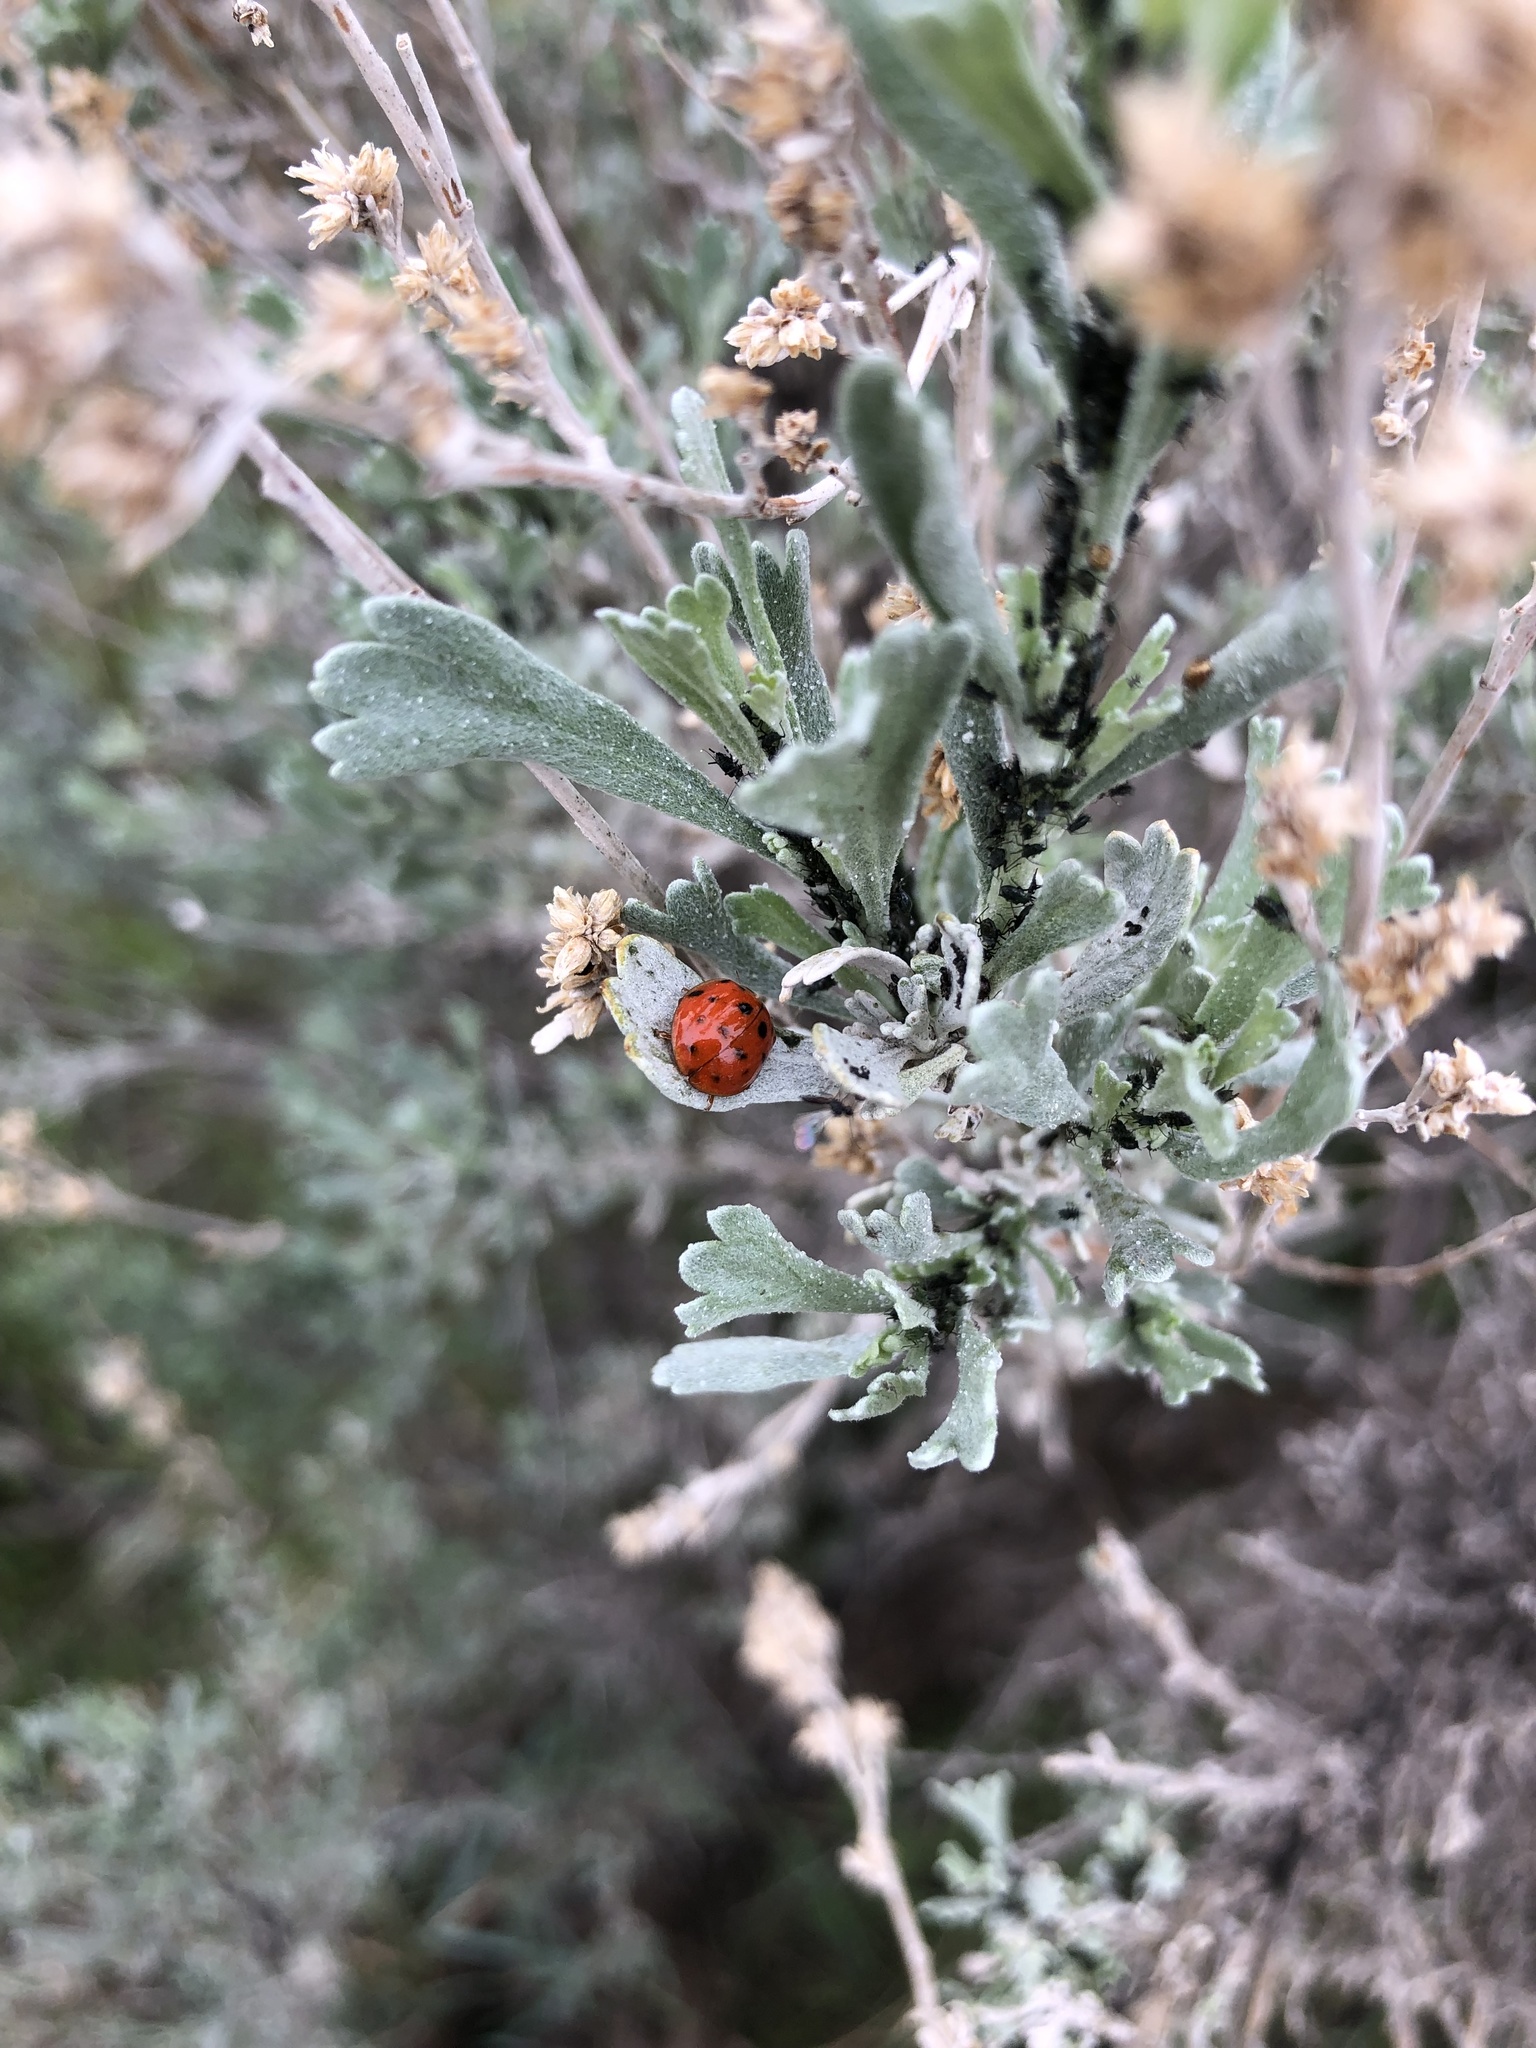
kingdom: Animalia
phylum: Arthropoda
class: Insecta
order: Coleoptera
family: Coccinellidae
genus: Harmonia
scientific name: Harmonia axyridis
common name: Harlequin ladybird
